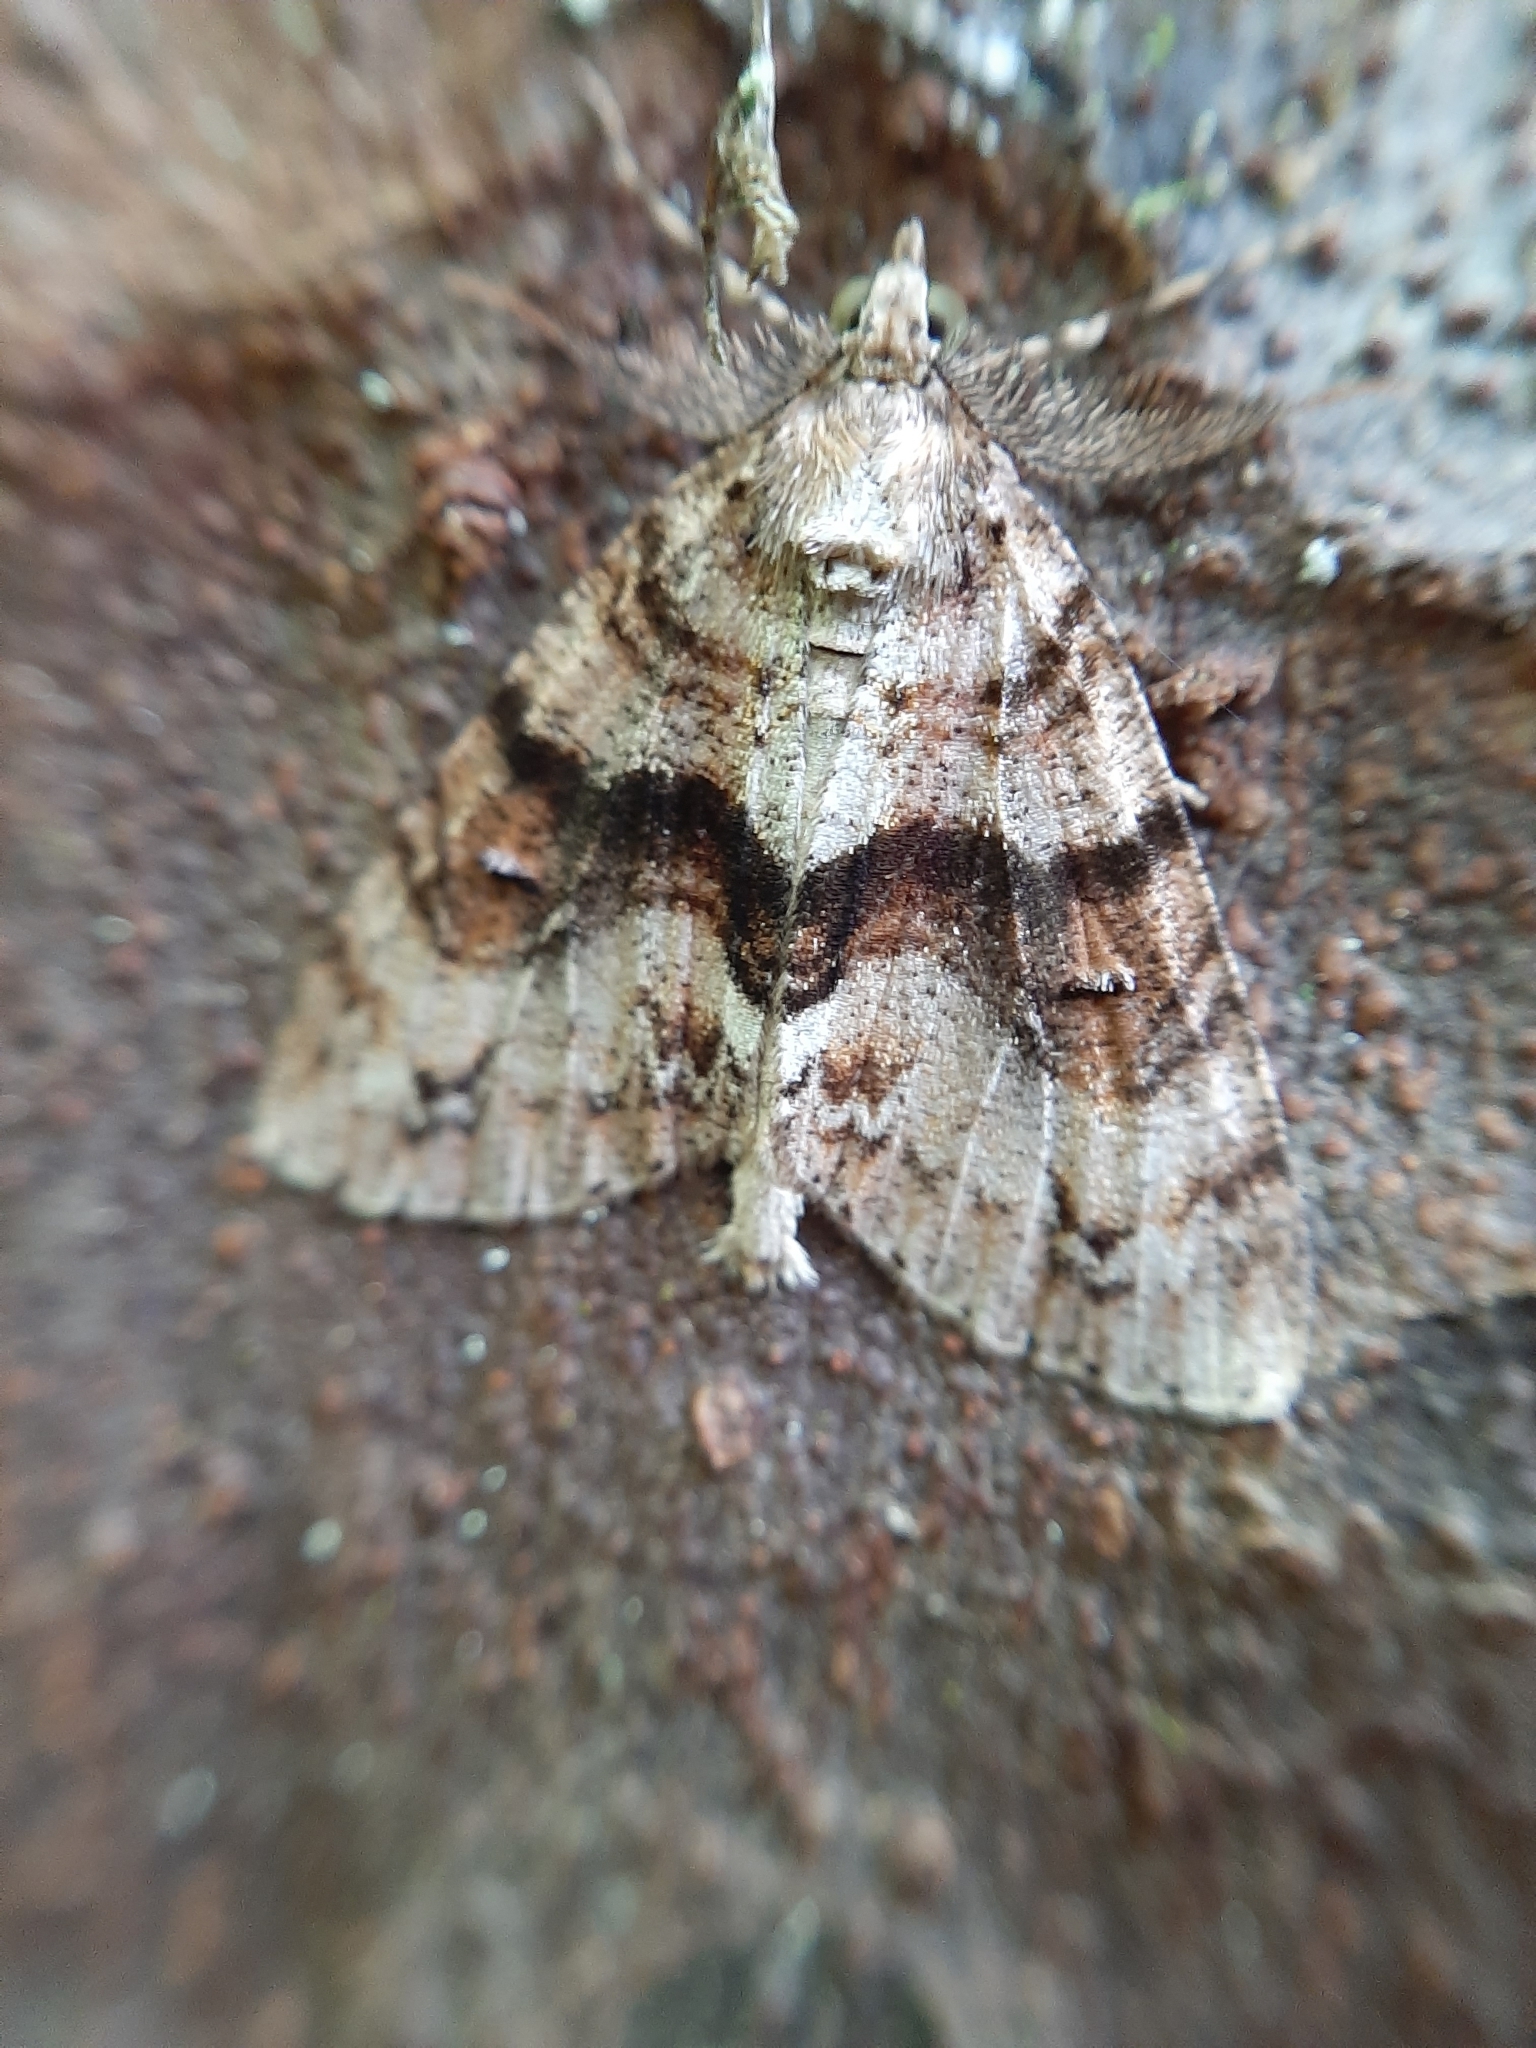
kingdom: Animalia
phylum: Arthropoda
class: Insecta
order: Lepidoptera
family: Geometridae
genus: Pseudocoremia
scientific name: Pseudocoremia suavis
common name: Common forest looper
